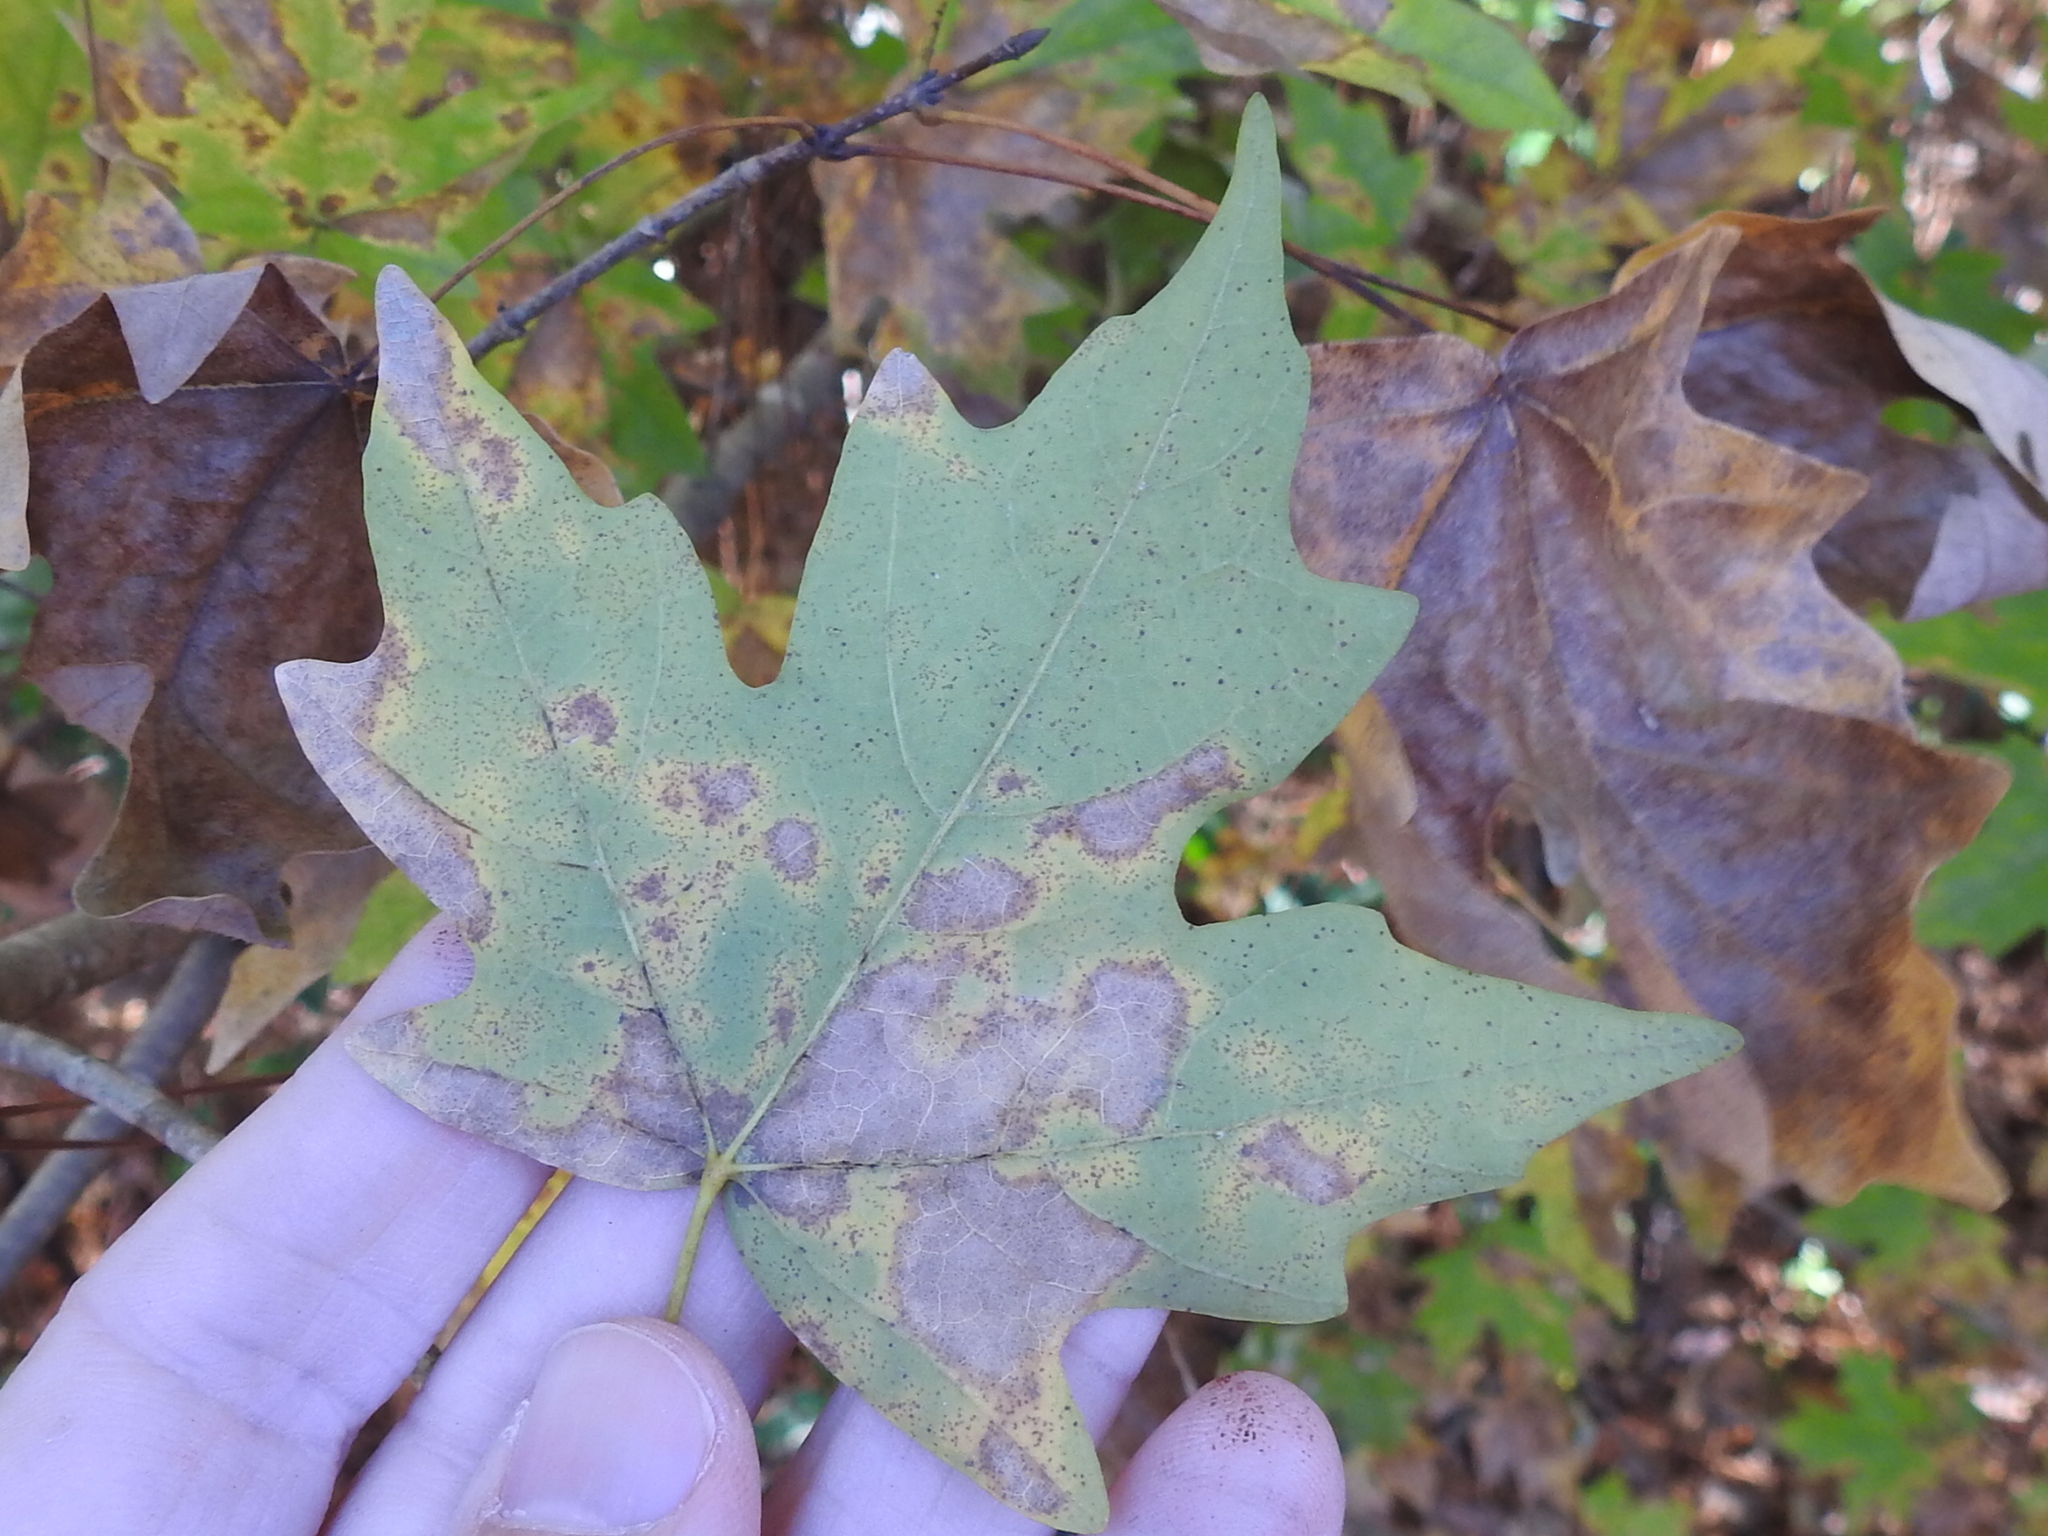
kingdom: Plantae
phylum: Tracheophyta
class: Magnoliopsida
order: Sapindales
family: Sapindaceae
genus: Acer
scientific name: Acer floridanum
